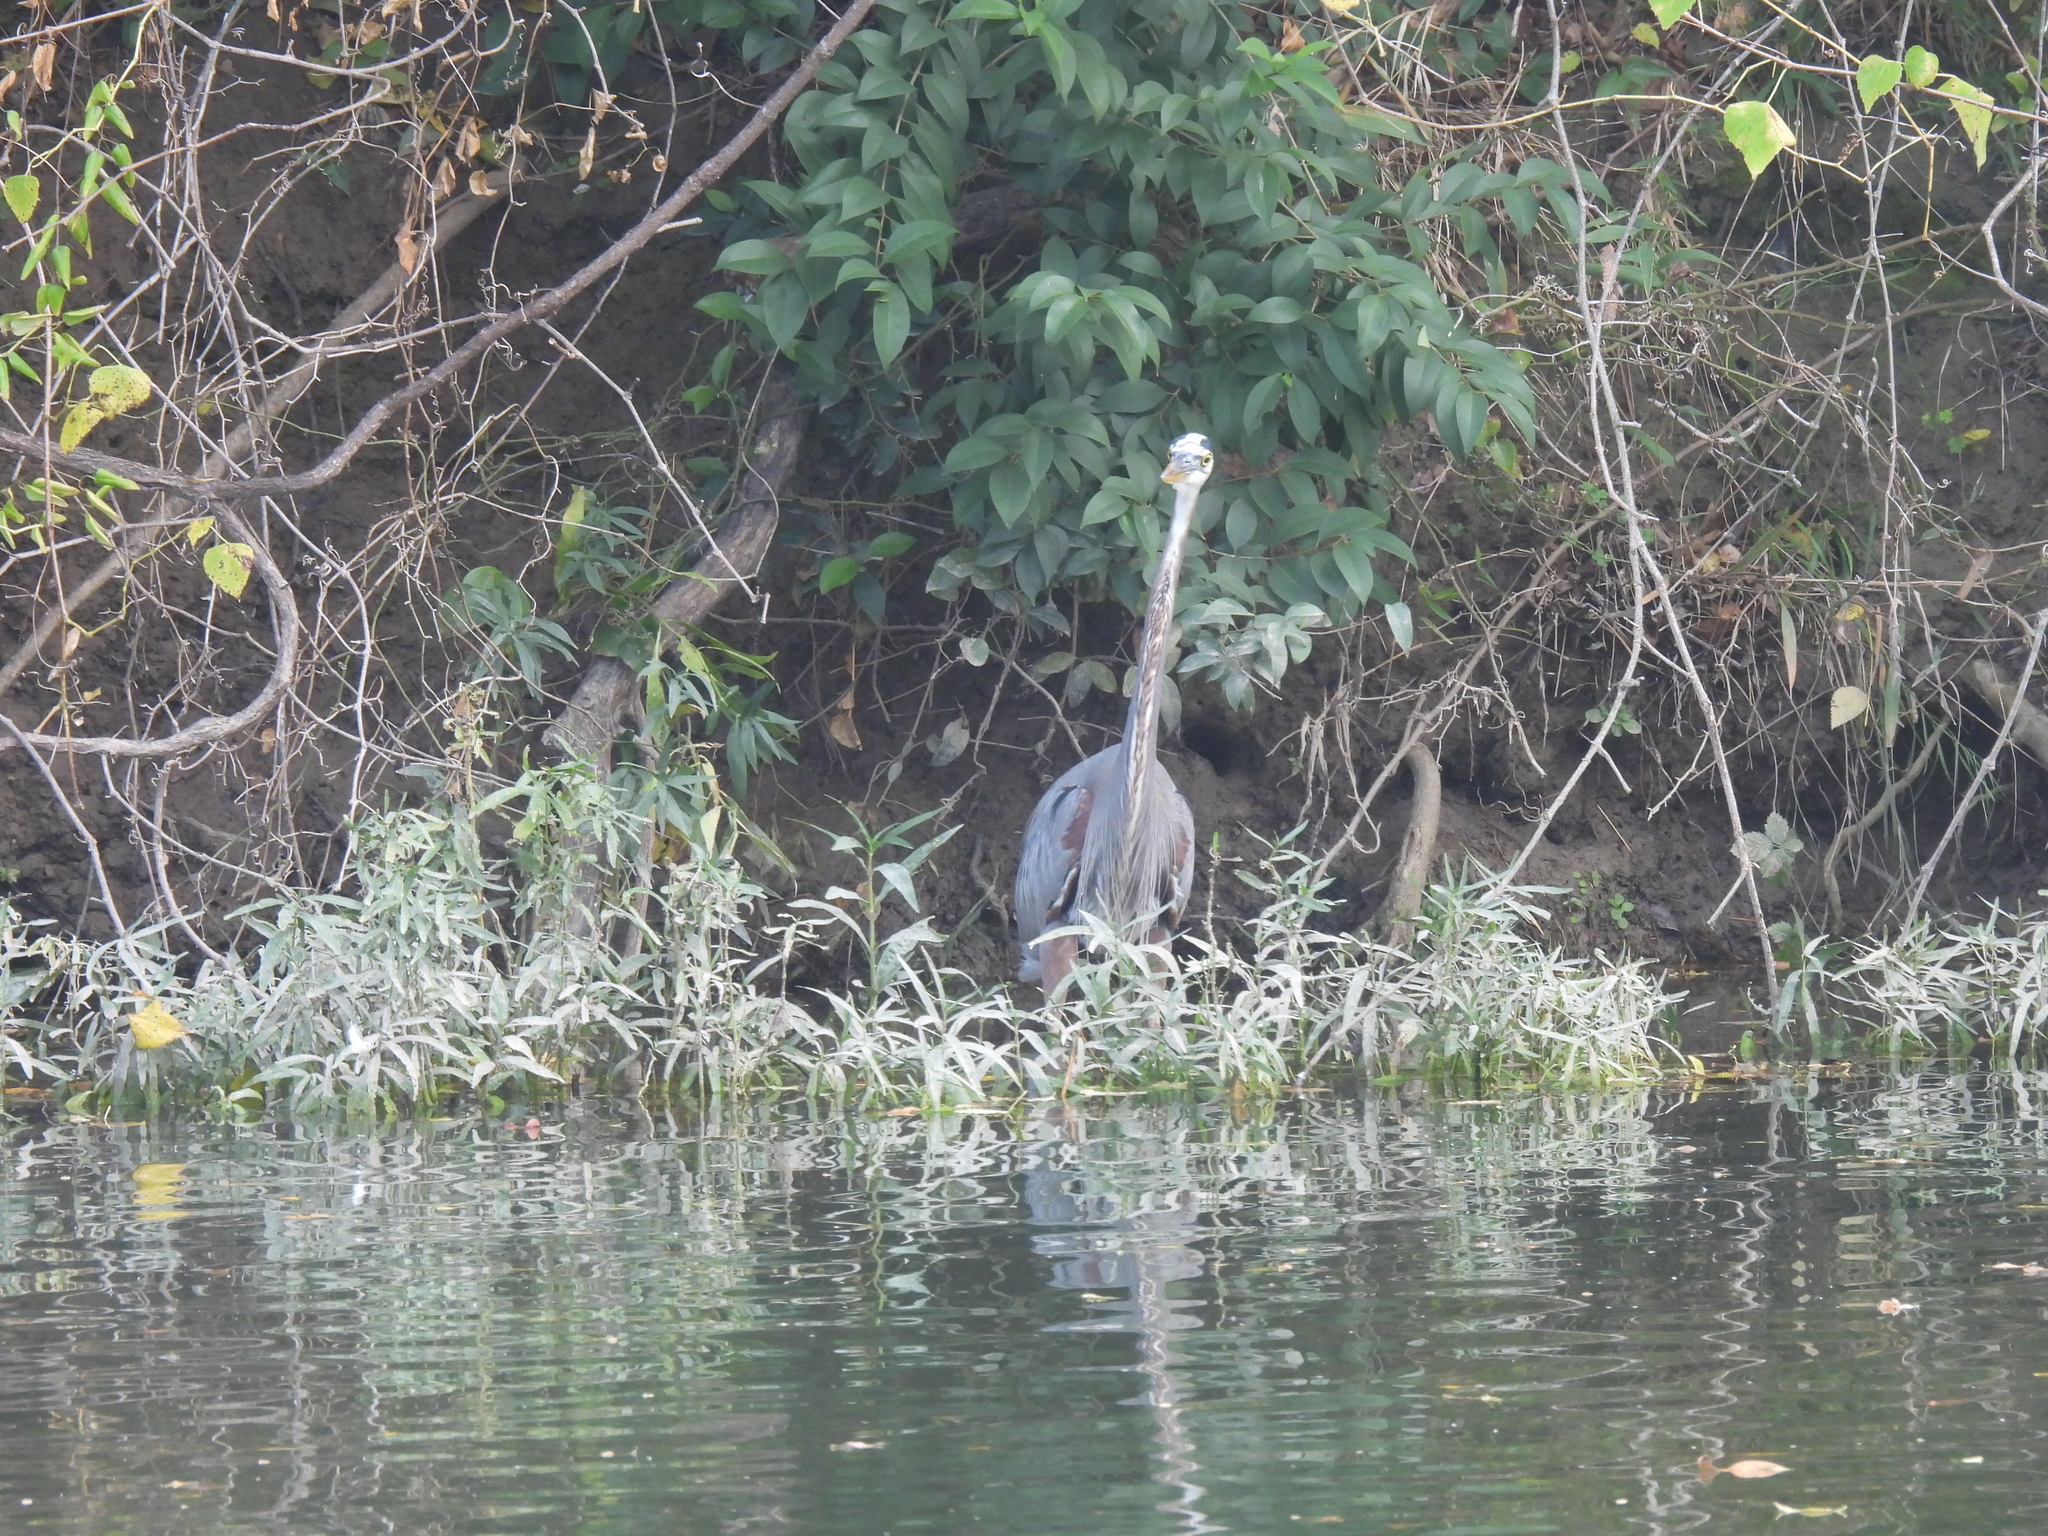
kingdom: Animalia
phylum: Chordata
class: Aves
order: Pelecaniformes
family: Ardeidae
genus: Ardea
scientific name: Ardea herodias
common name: Great blue heron
